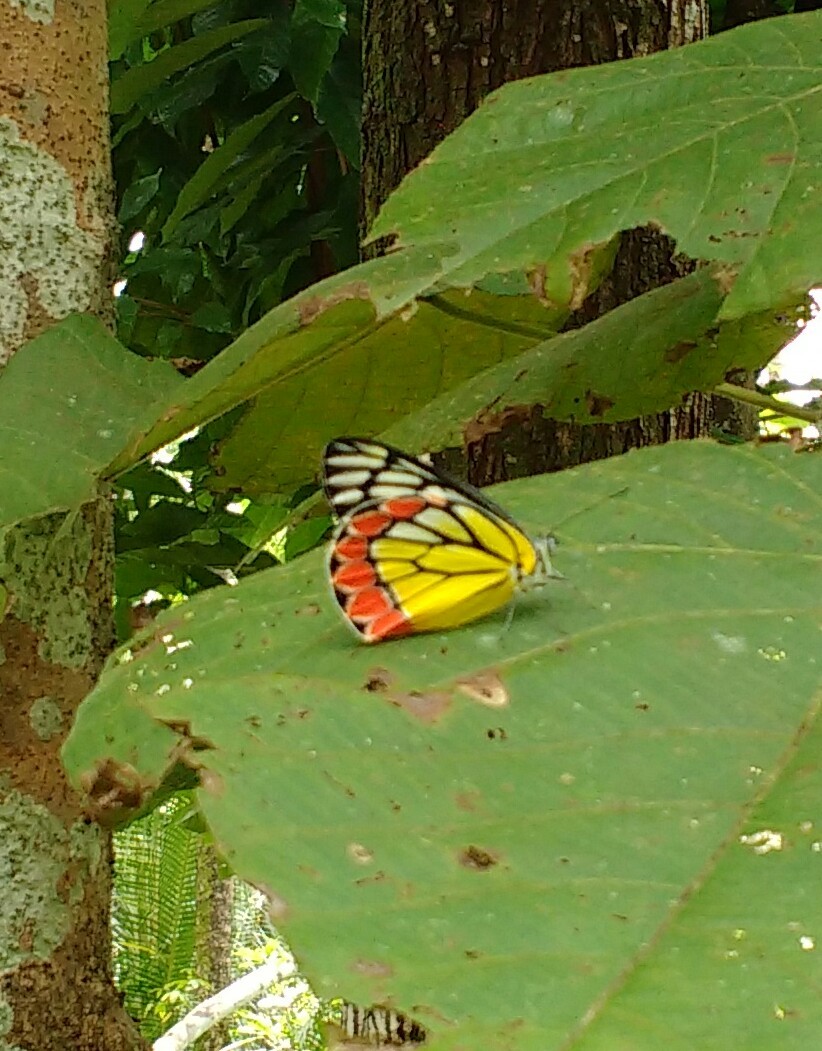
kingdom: Animalia
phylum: Arthropoda
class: Insecta
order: Lepidoptera
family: Pieridae
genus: Delias
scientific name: Delias eucharis
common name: Common jezebel
